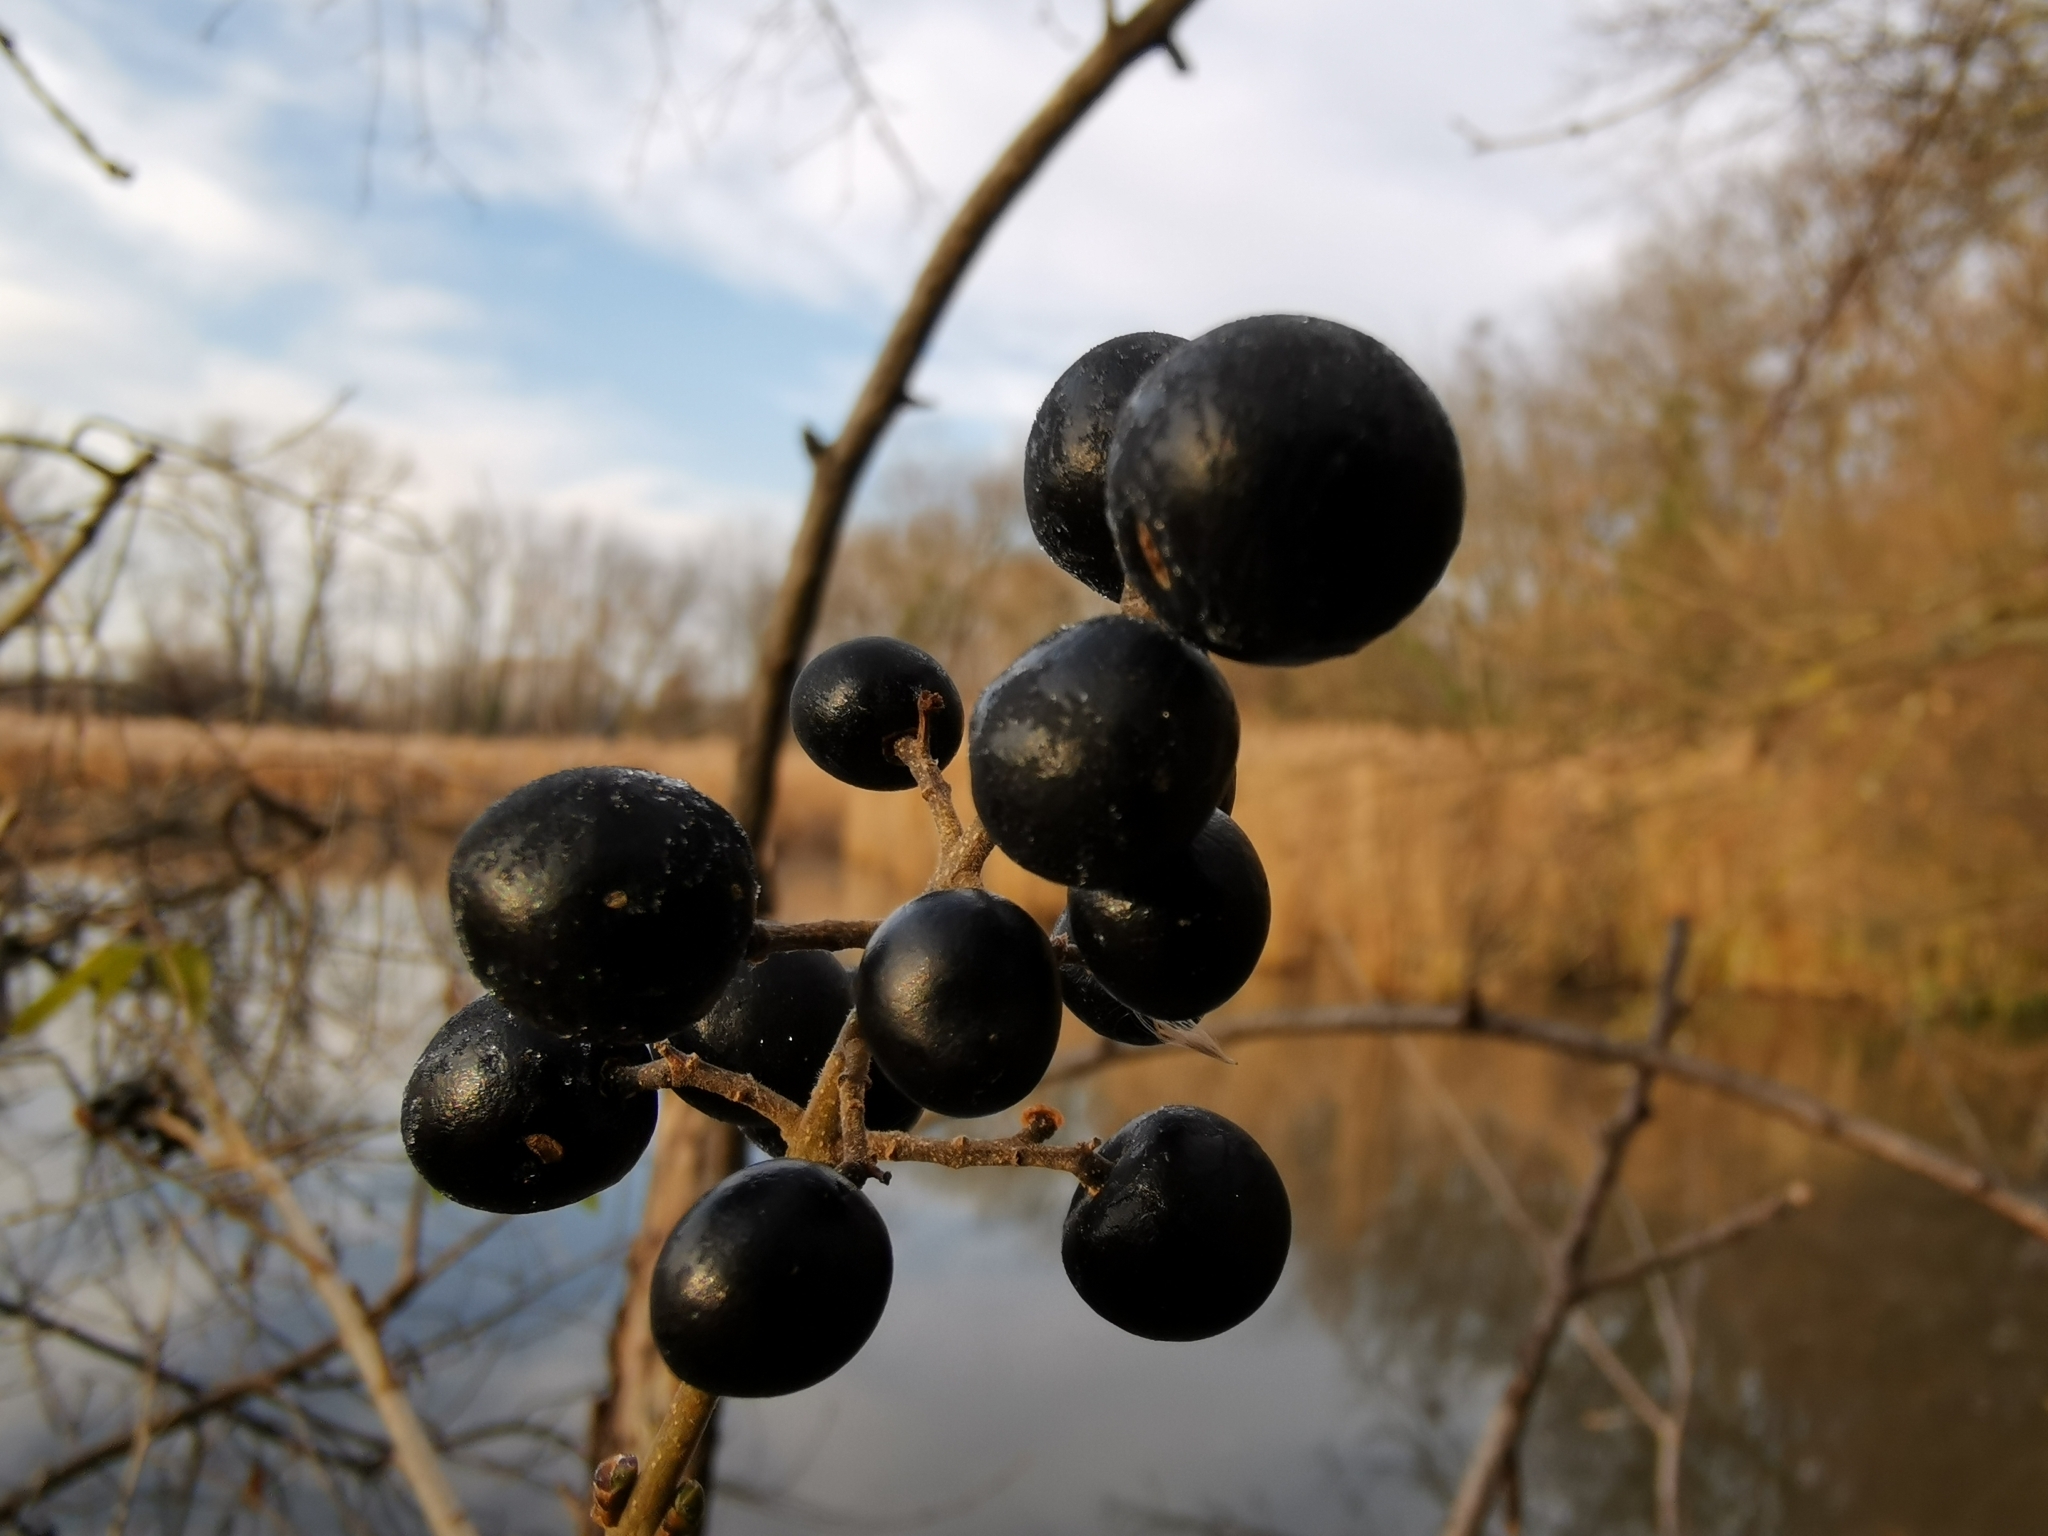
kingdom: Plantae
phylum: Tracheophyta
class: Magnoliopsida
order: Lamiales
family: Oleaceae
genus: Ligustrum
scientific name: Ligustrum vulgare
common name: Wild privet
